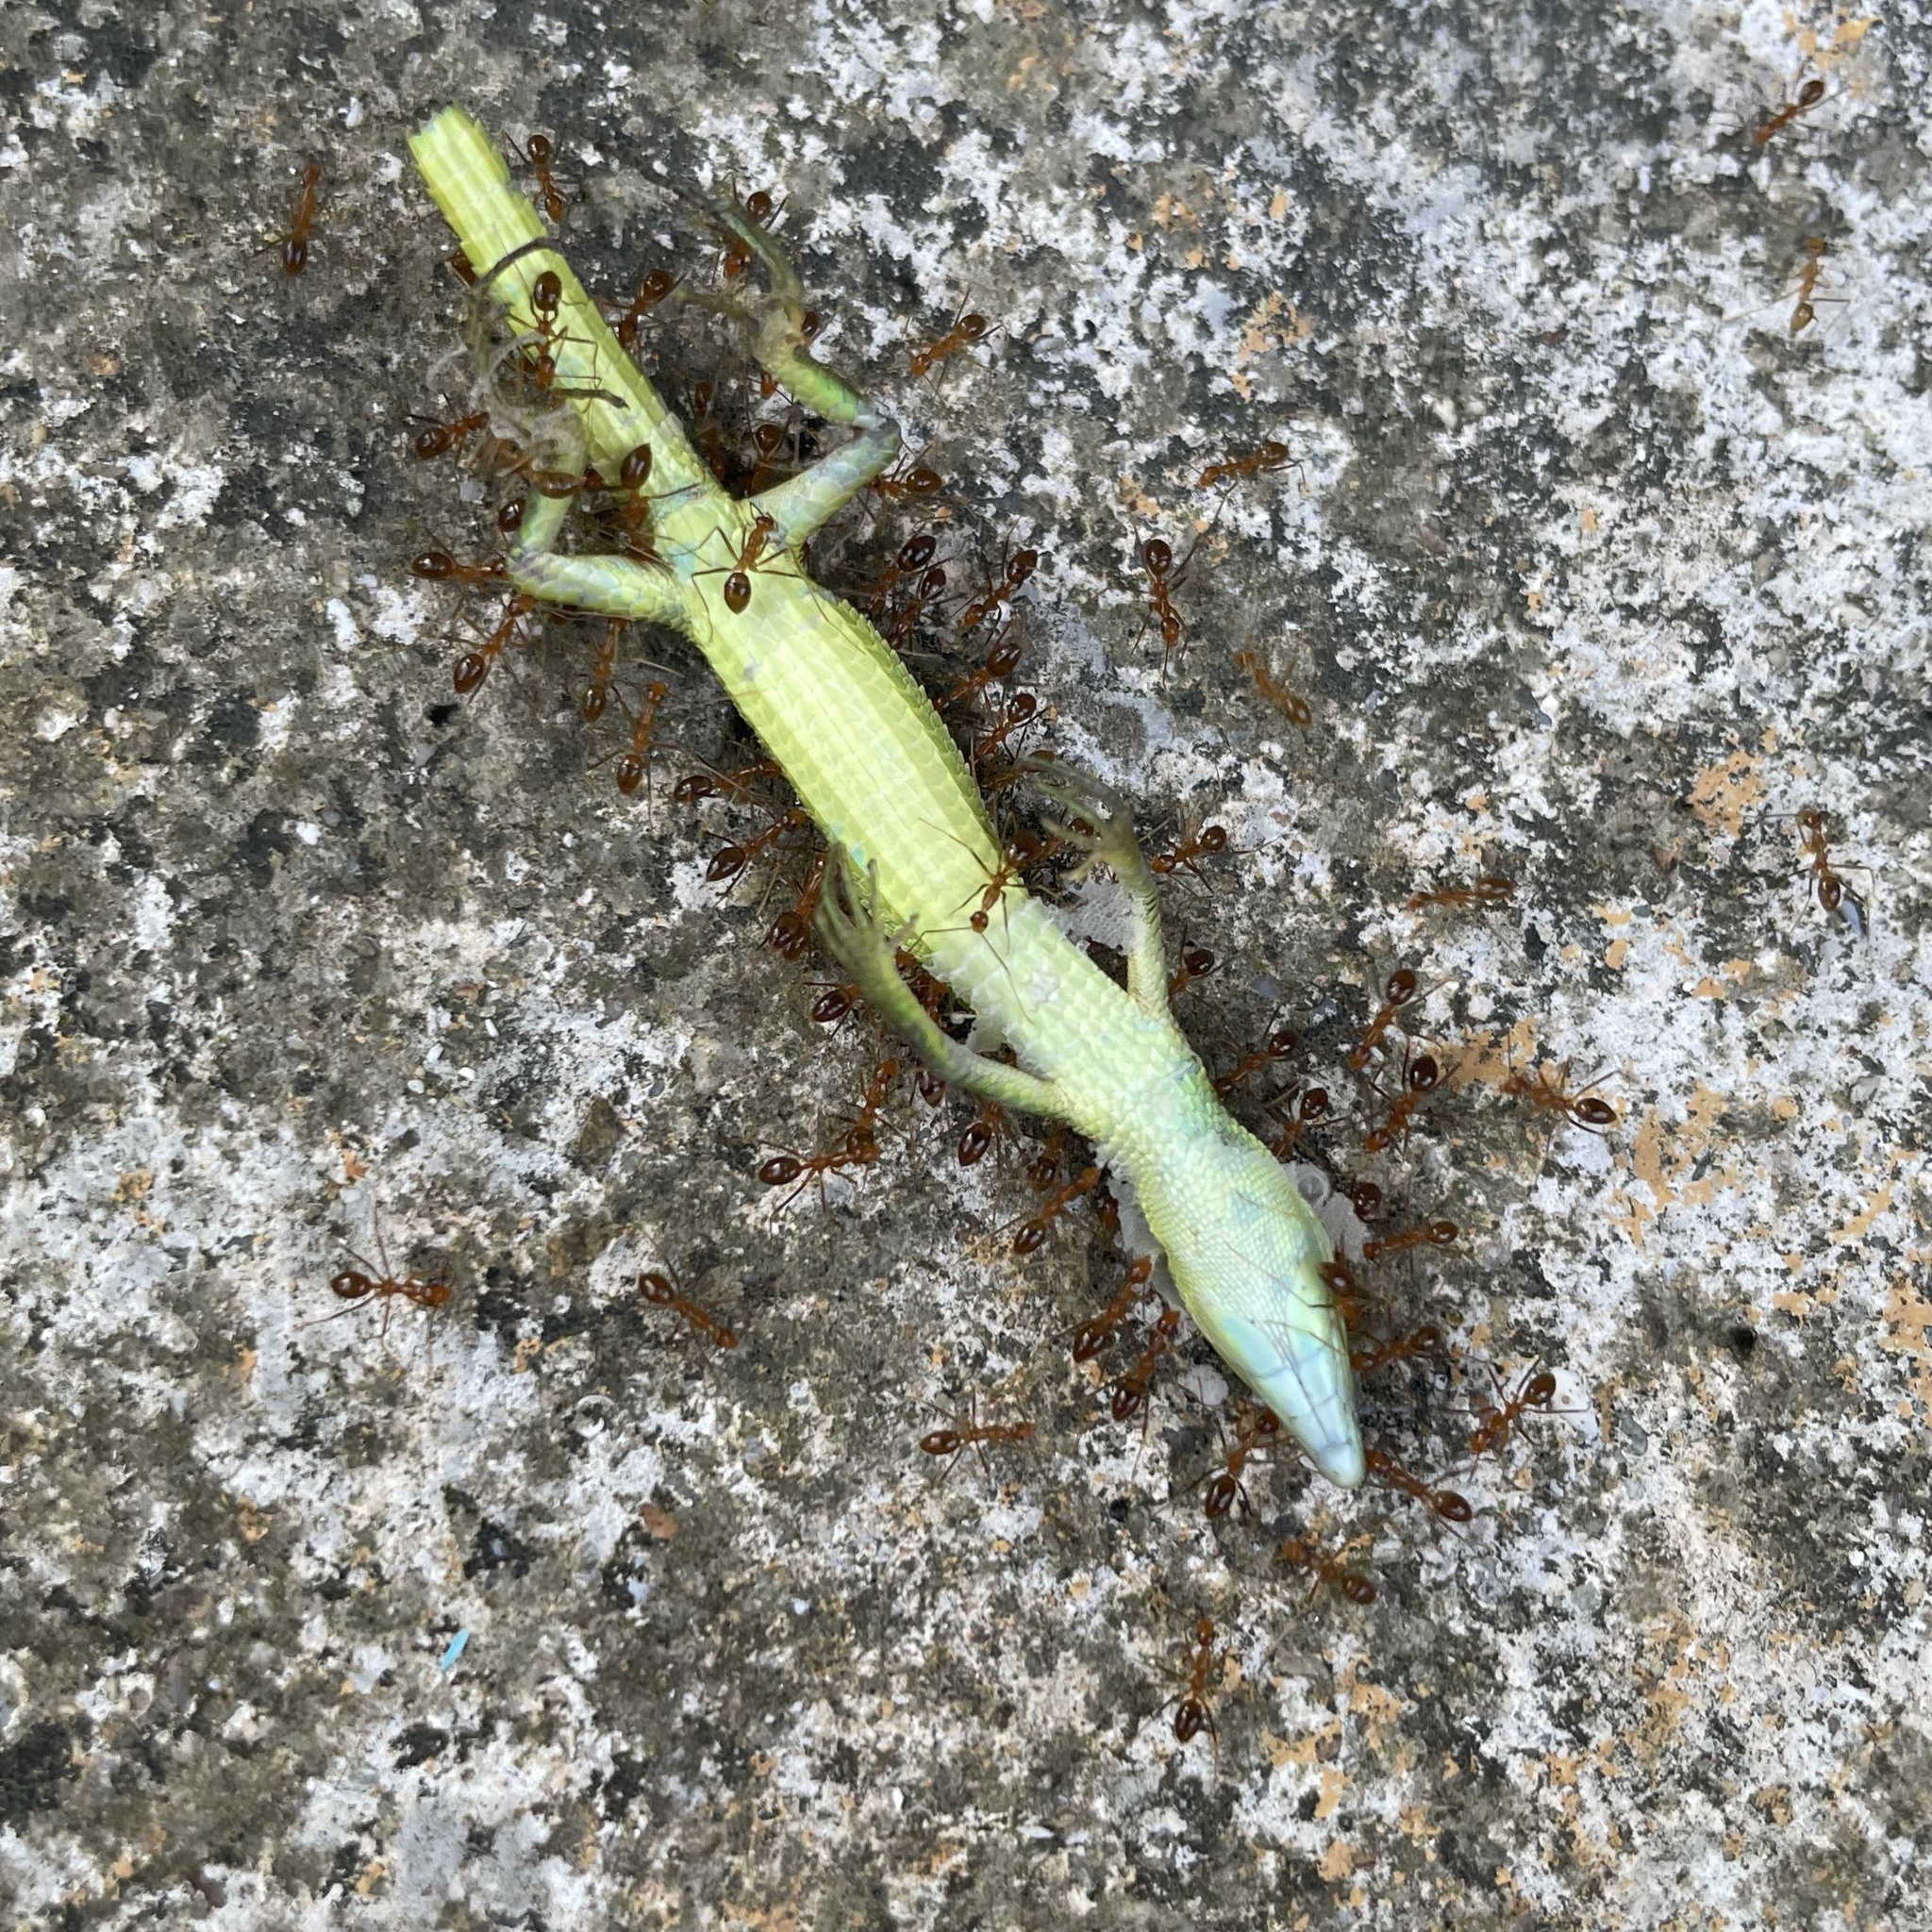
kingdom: Animalia
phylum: Chordata
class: Squamata
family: Lacertidae
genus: Takydromus
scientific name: Takydromus smaragdinus
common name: Green grass lizard
